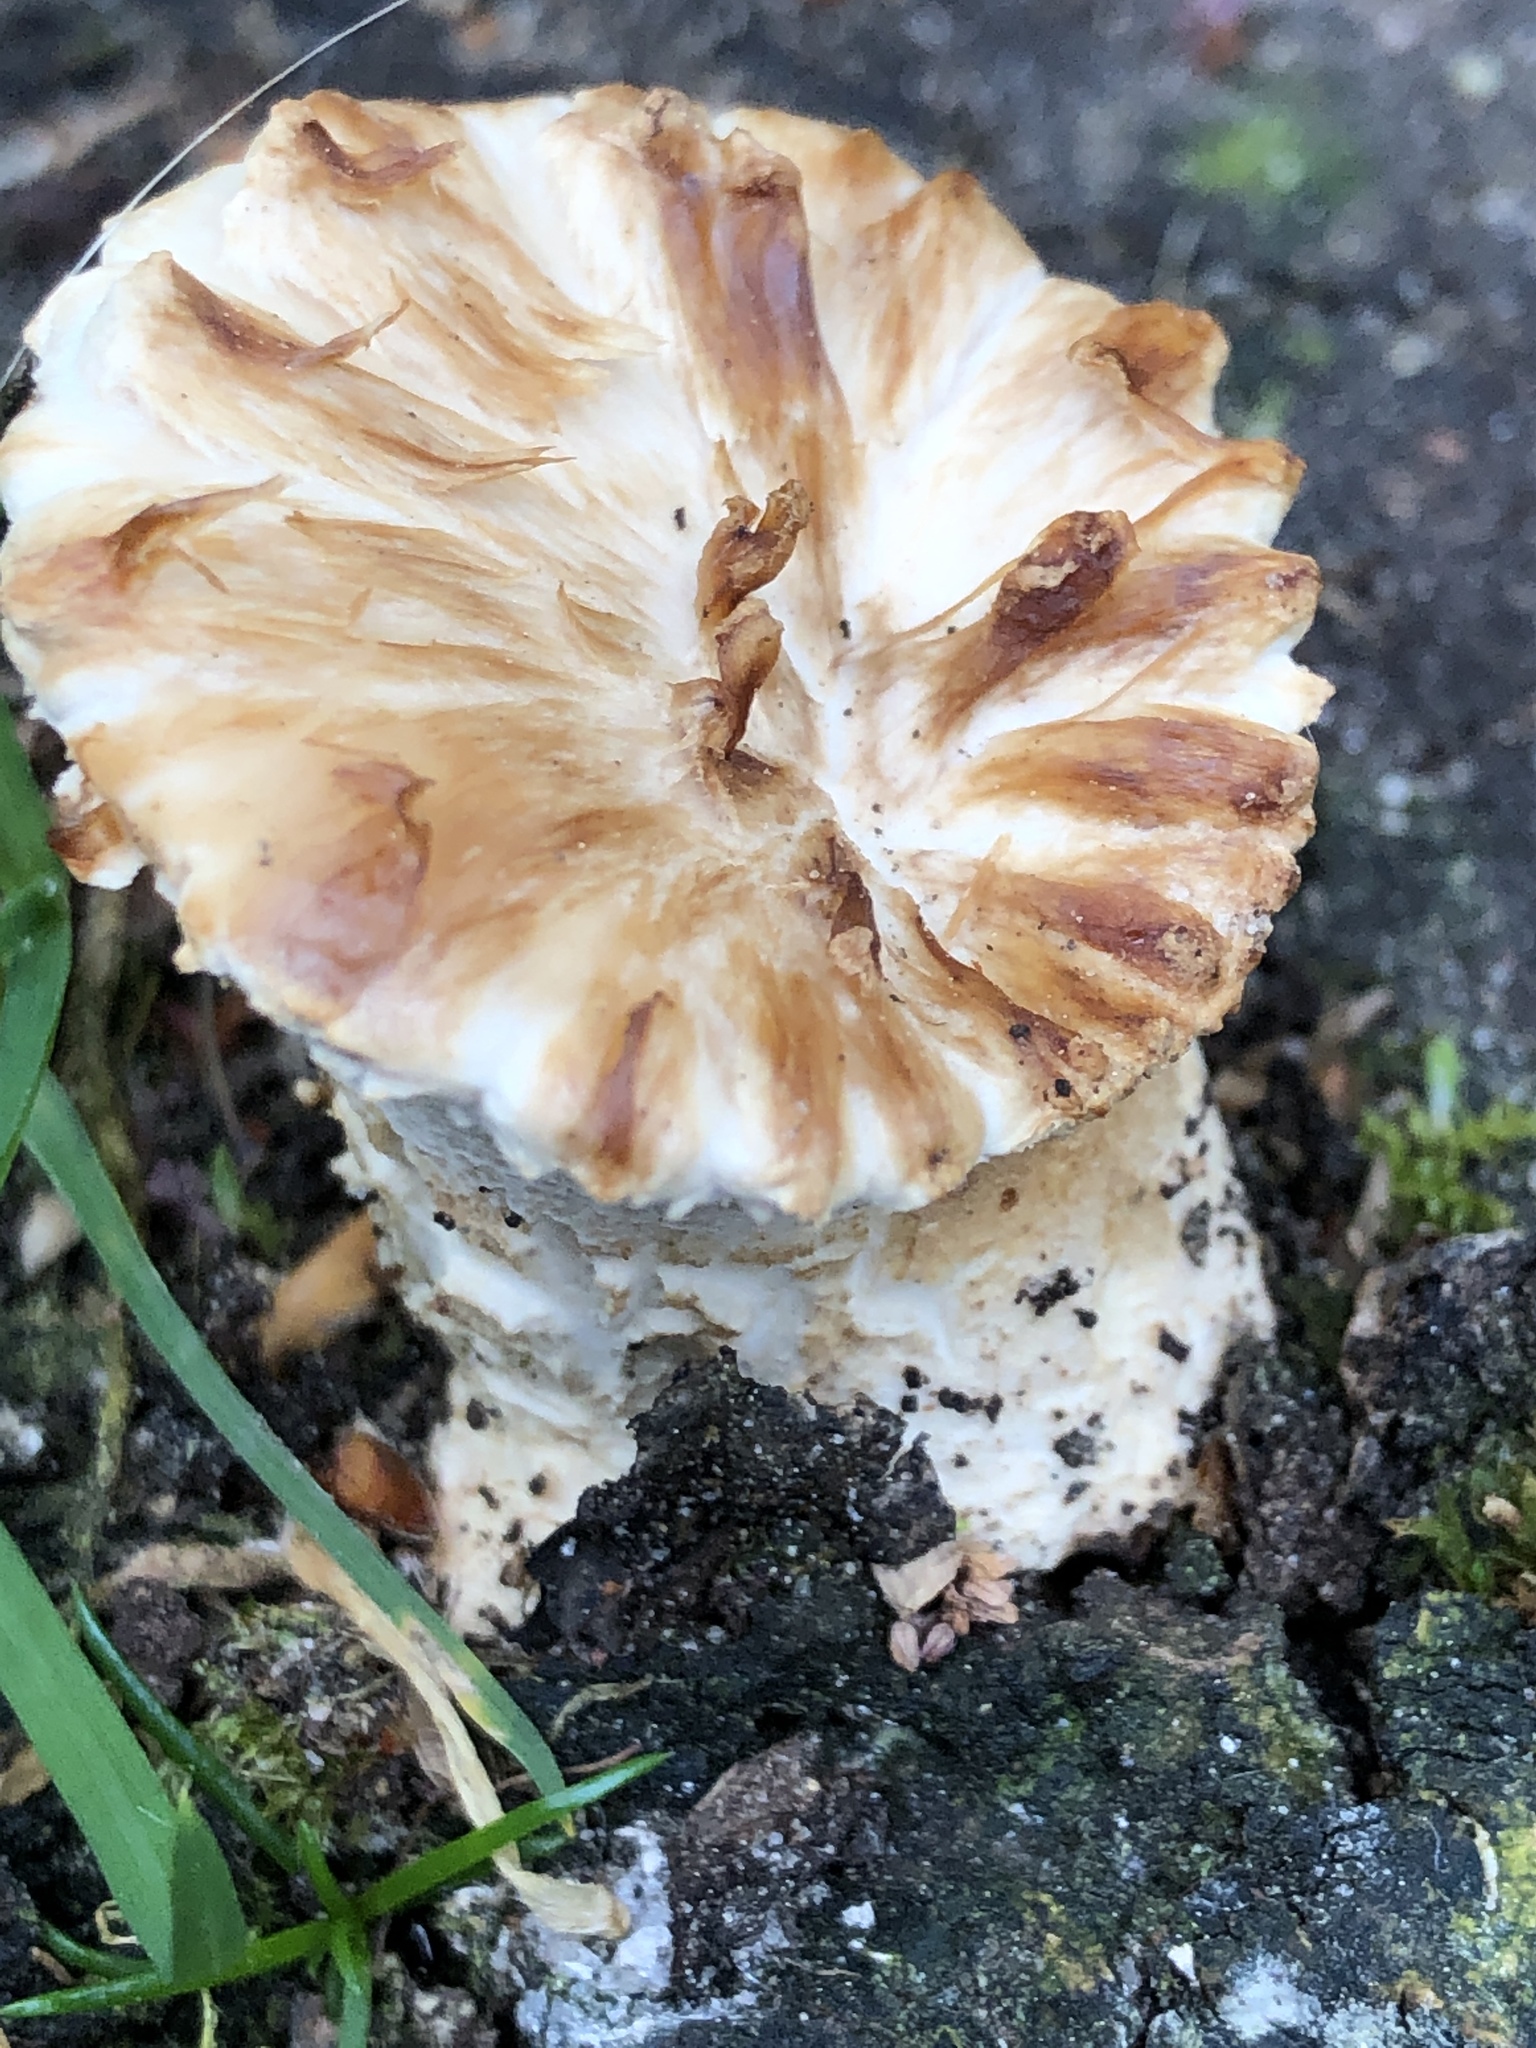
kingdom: Fungi
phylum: Basidiomycota
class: Agaricomycetes
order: Polyporales
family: Polyporaceae
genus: Cerioporus
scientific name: Cerioporus squamosus
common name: Dryad's saddle
